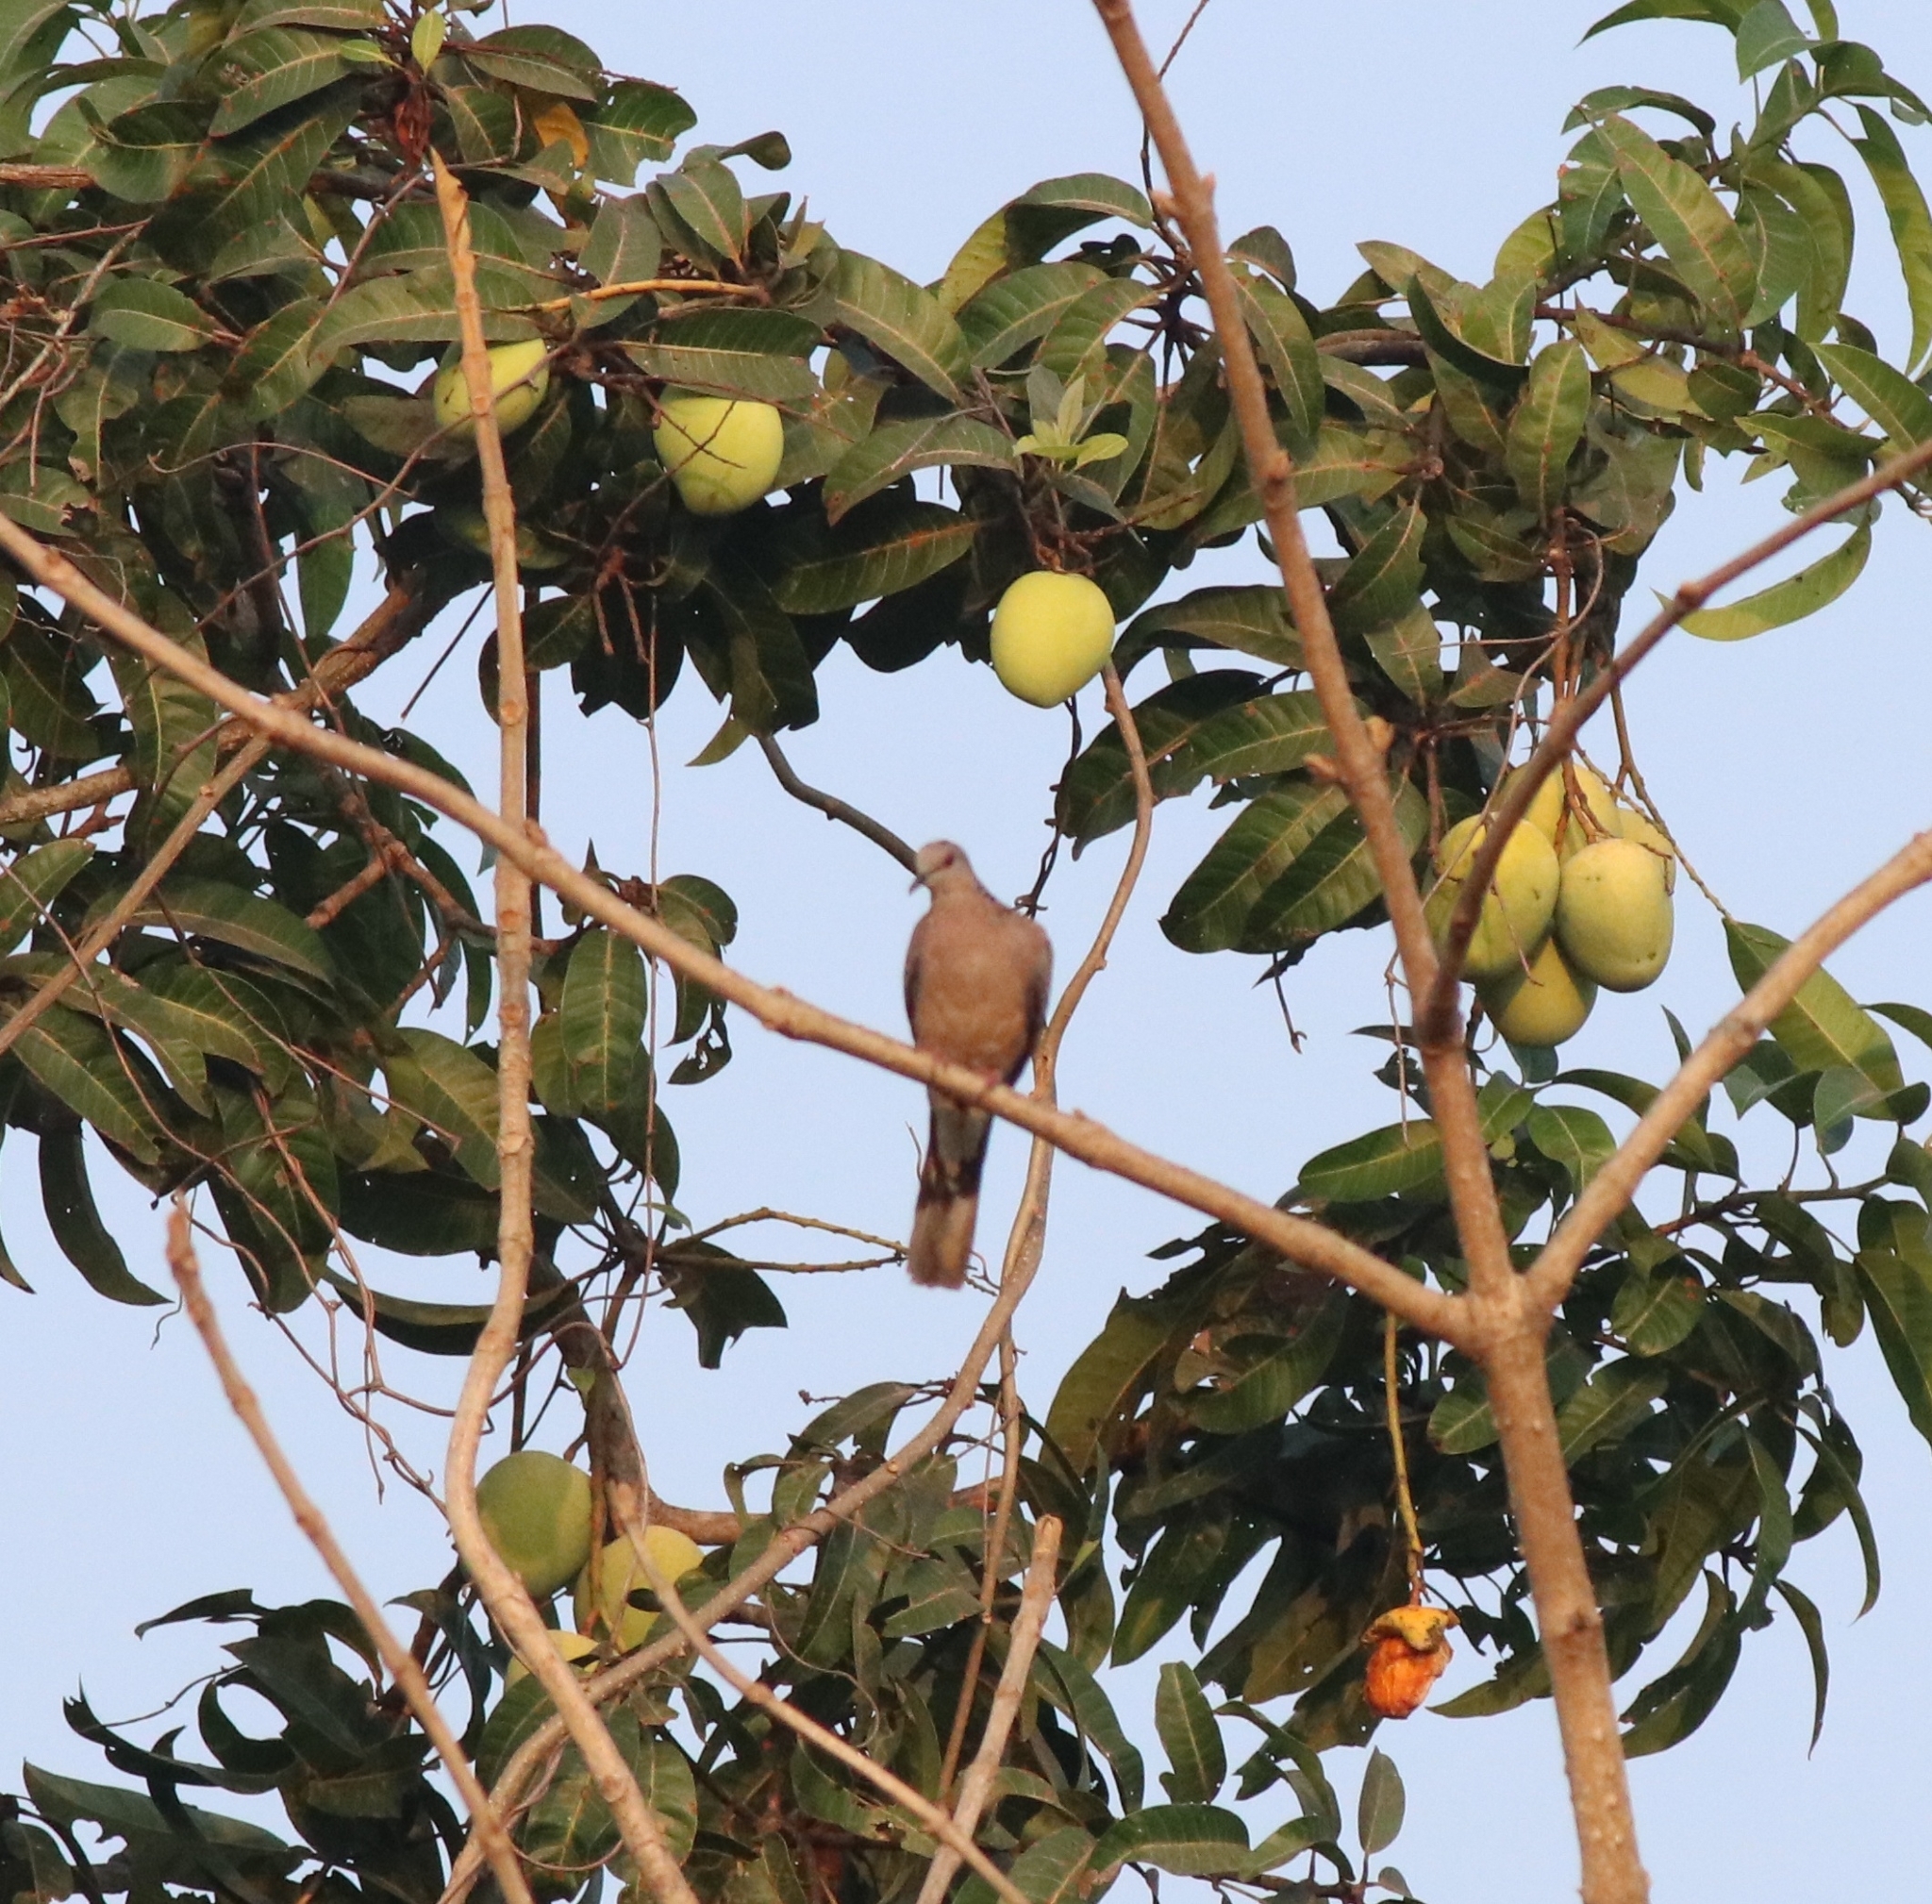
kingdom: Animalia
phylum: Chordata
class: Aves
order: Columbiformes
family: Columbidae
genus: Spilopelia
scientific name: Spilopelia chinensis
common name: Spotted dove
